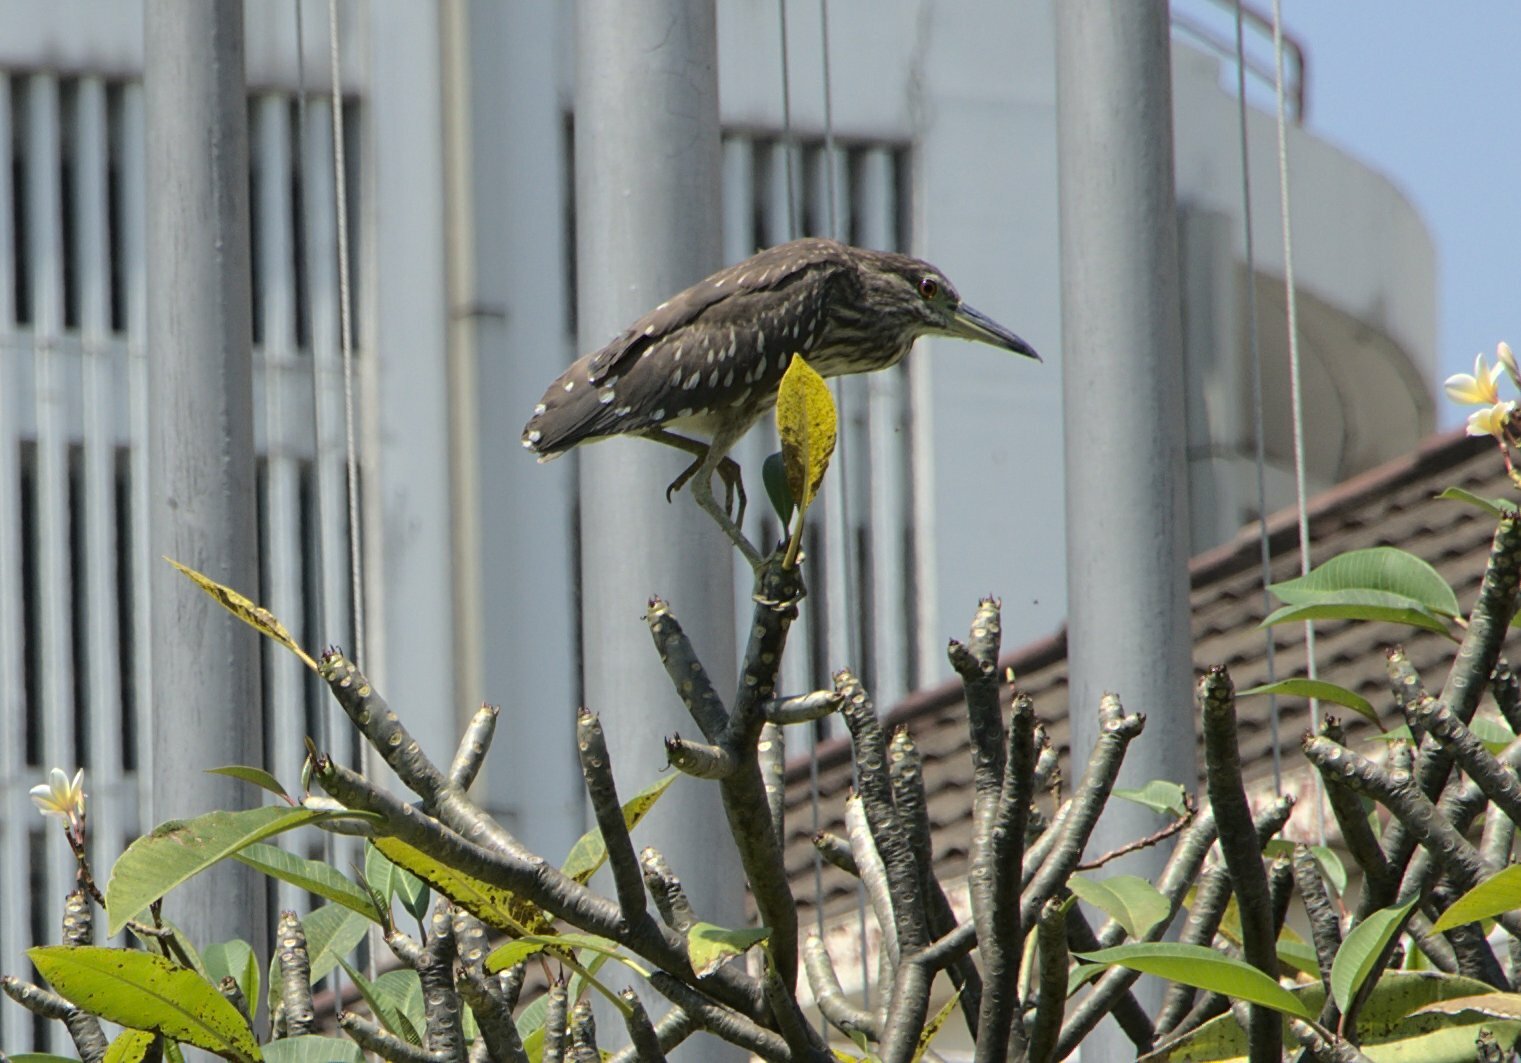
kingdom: Animalia
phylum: Chordata
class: Aves
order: Pelecaniformes
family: Ardeidae
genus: Nycticorax
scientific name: Nycticorax nycticorax
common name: Black-crowned night heron
